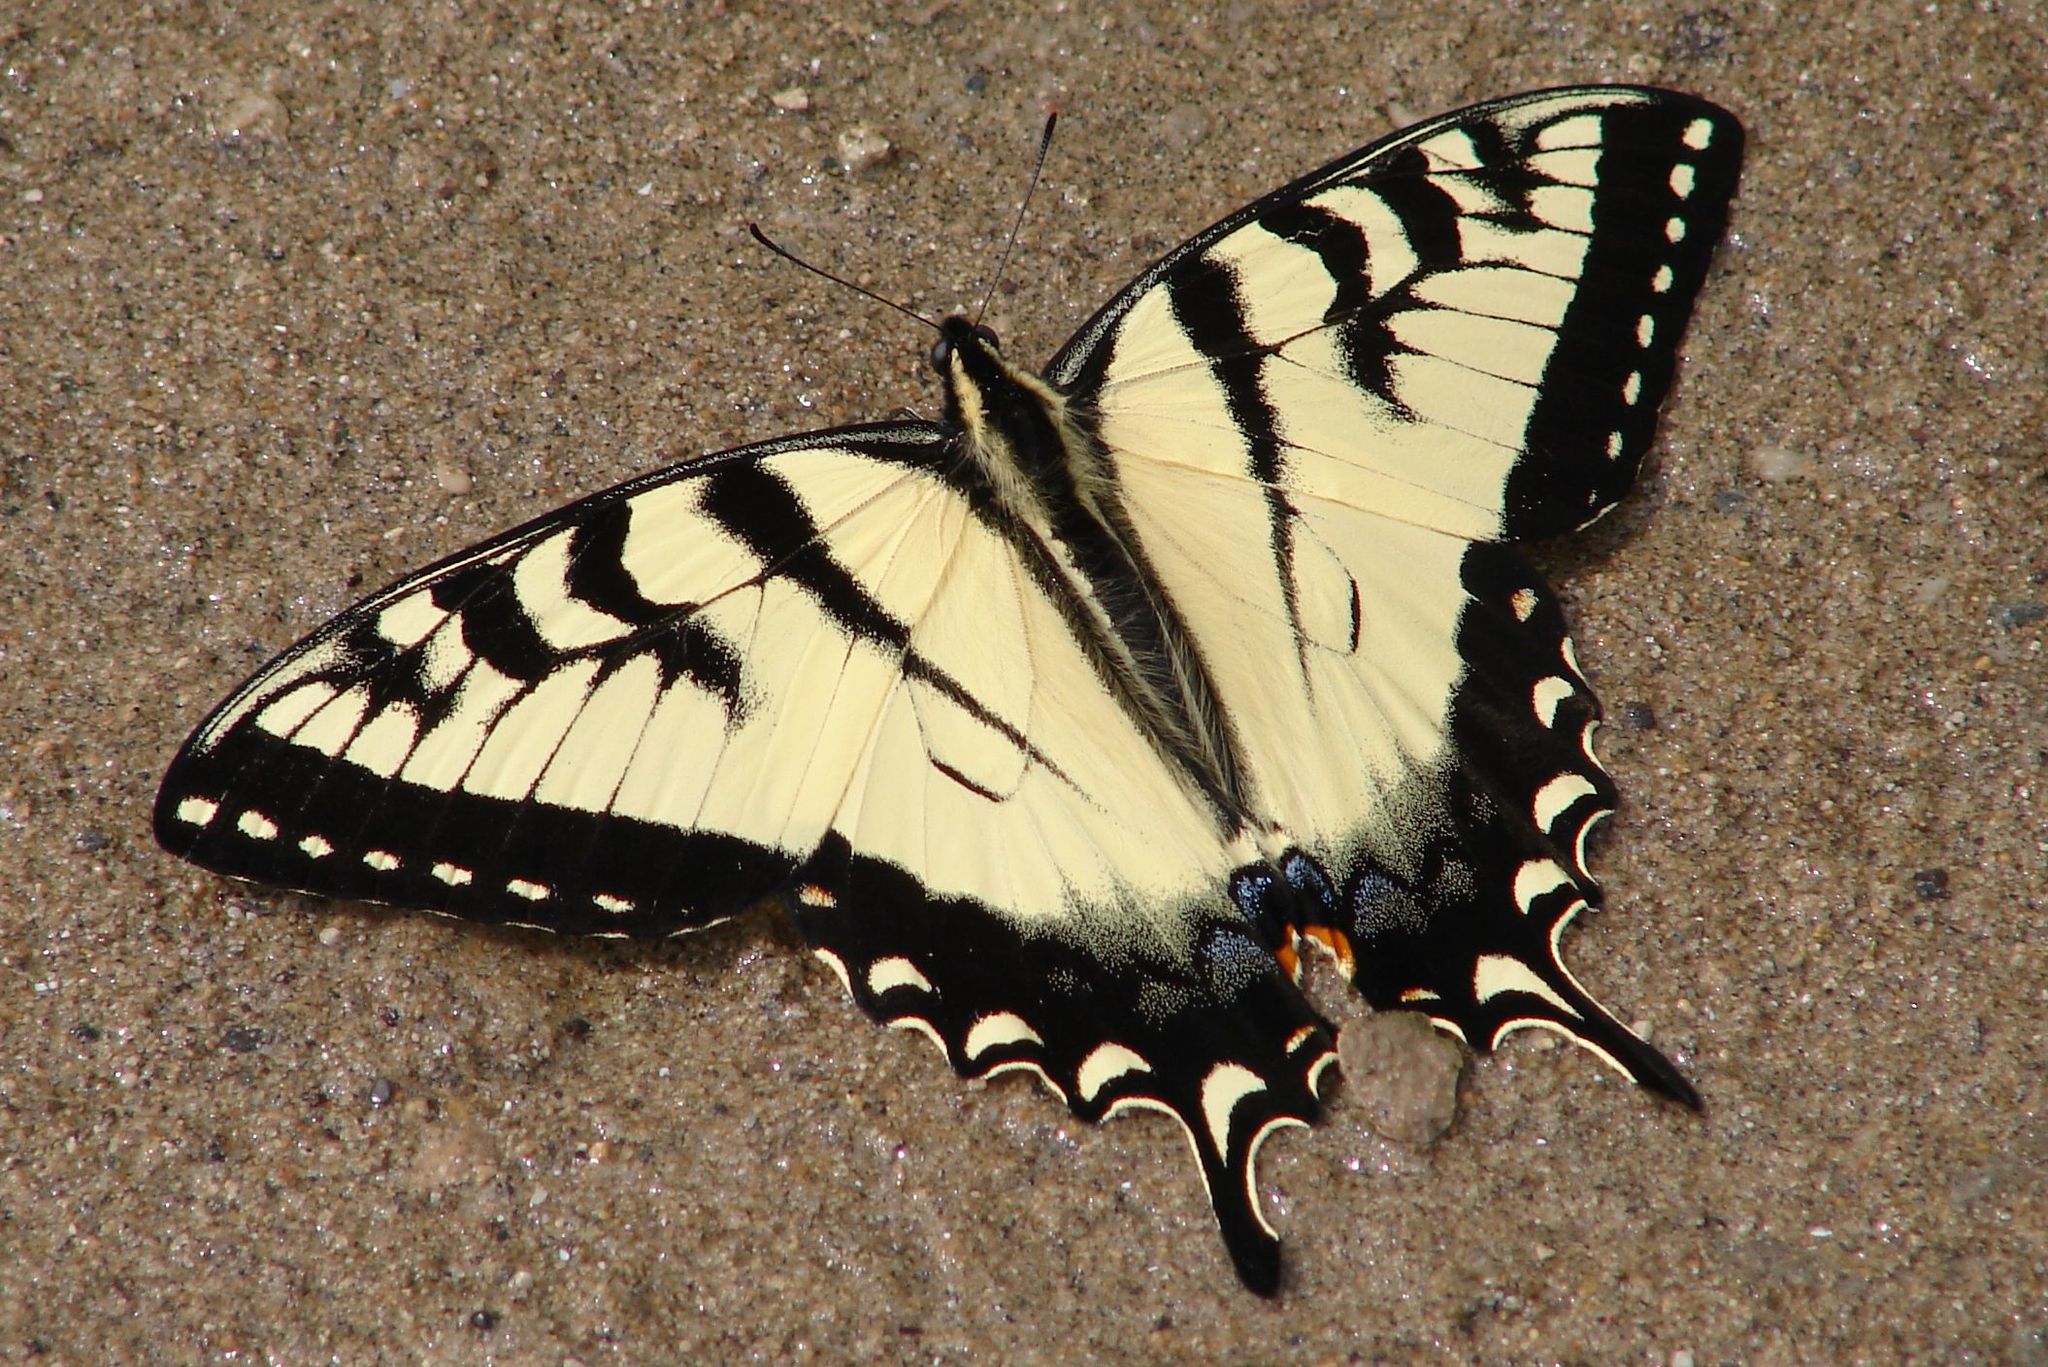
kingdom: Animalia
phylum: Arthropoda
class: Insecta
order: Lepidoptera
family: Papilionidae
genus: Papilio
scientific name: Papilio
